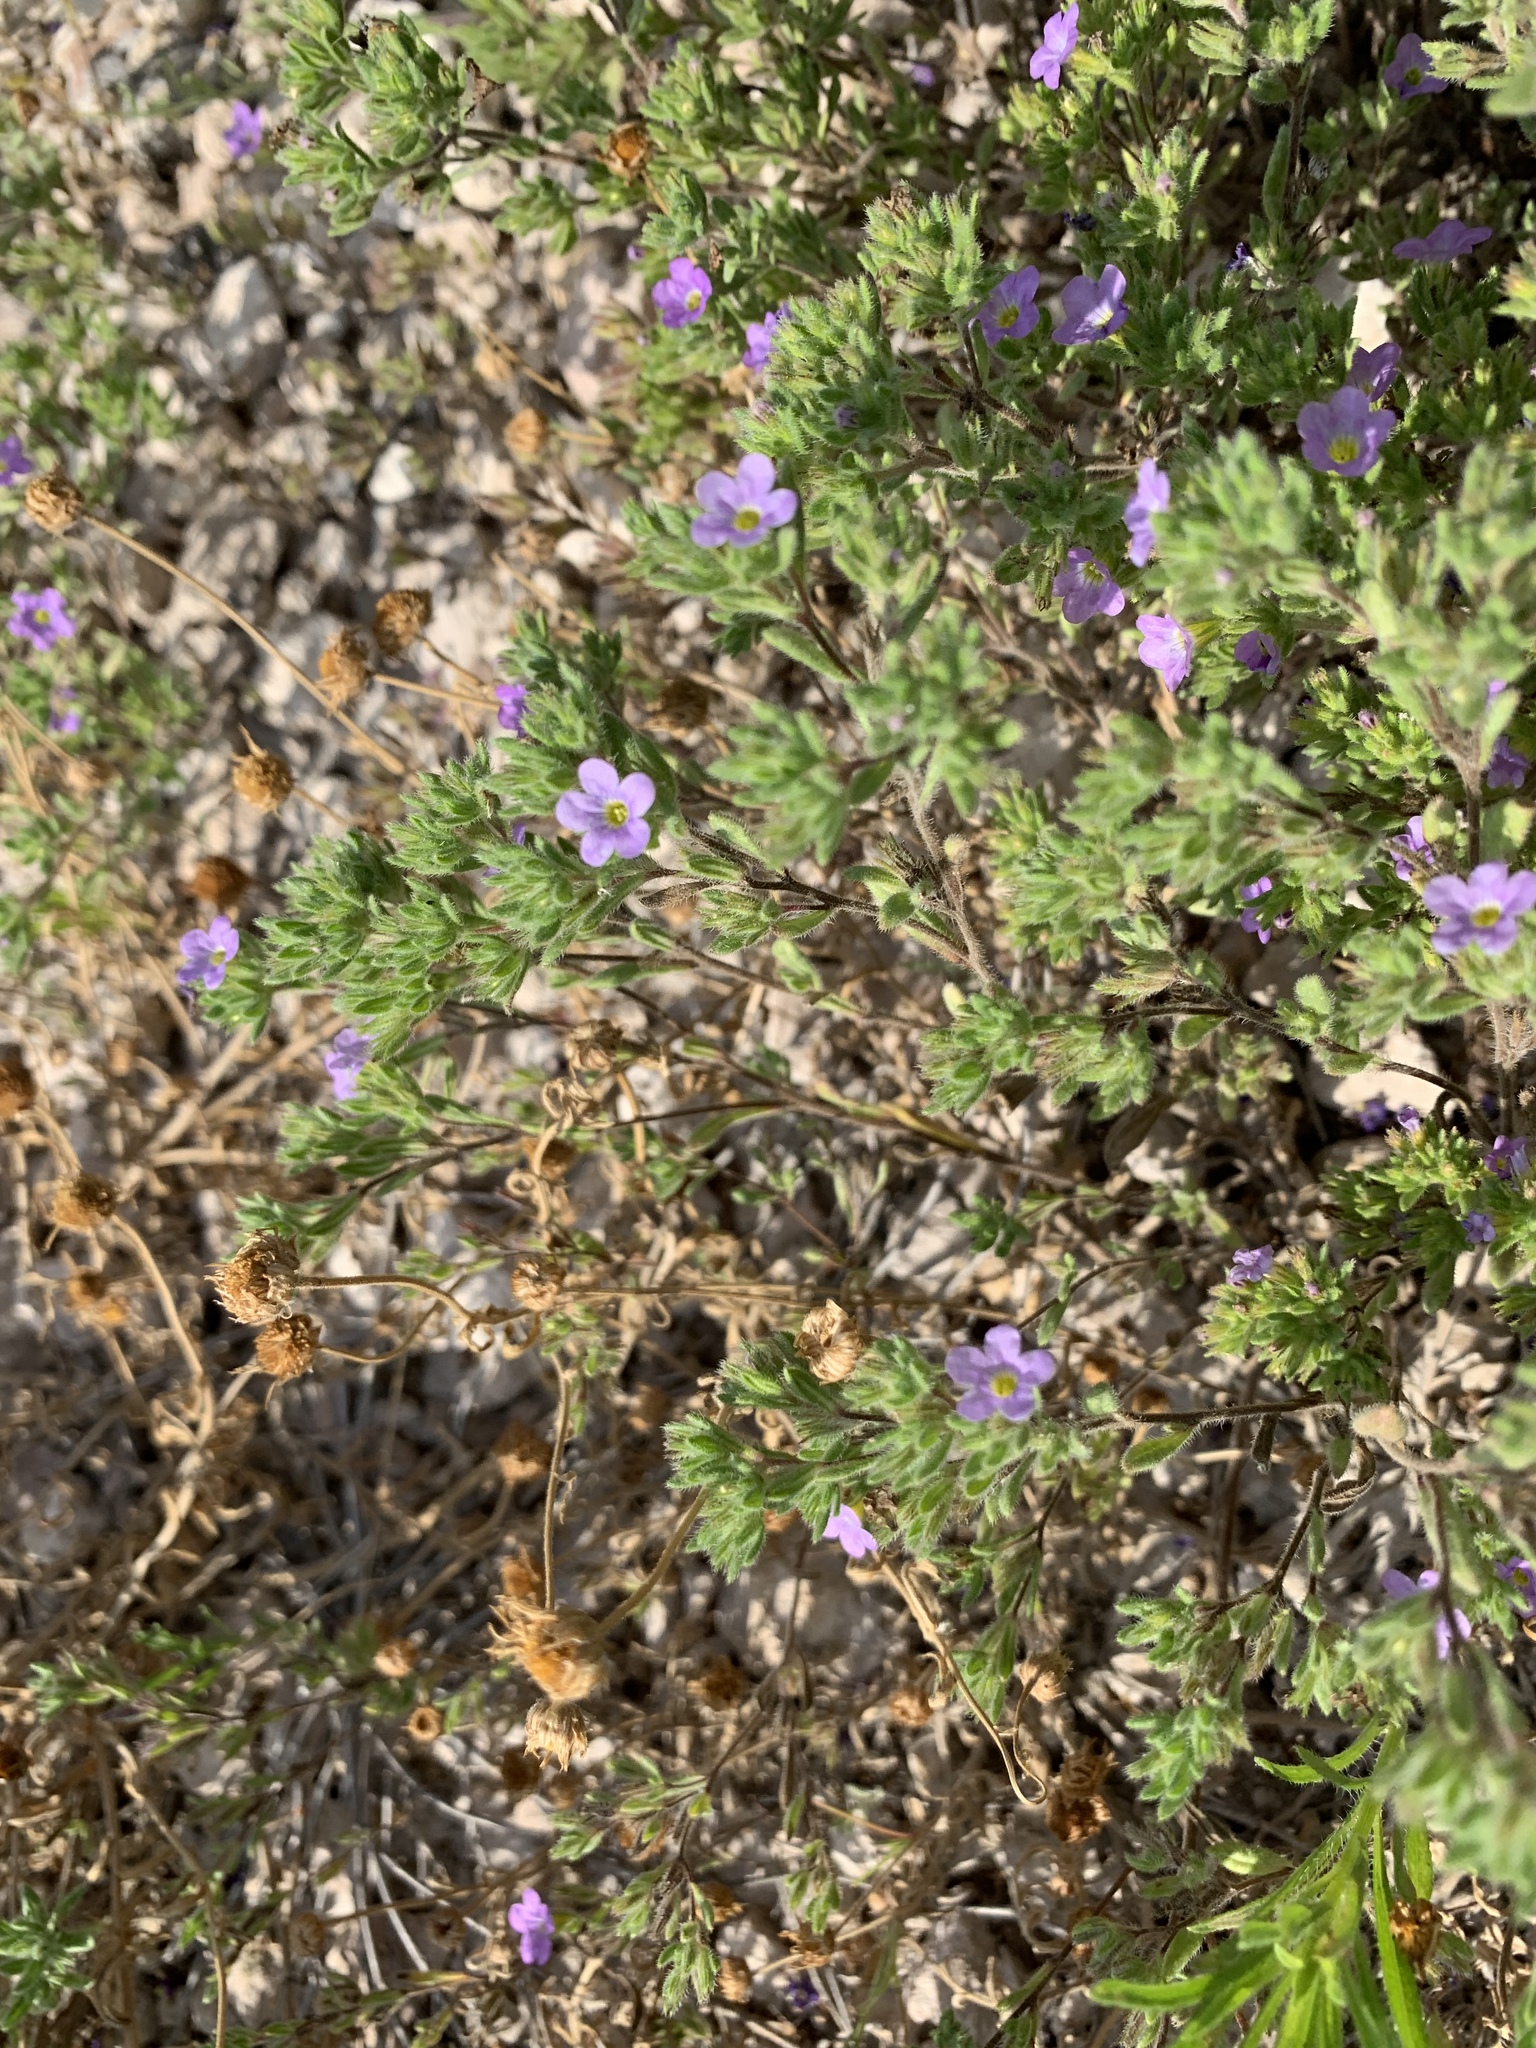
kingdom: Plantae
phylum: Tracheophyta
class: Magnoliopsida
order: Boraginales
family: Namaceae
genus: Nama
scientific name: Nama hispida
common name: Bristly nama
